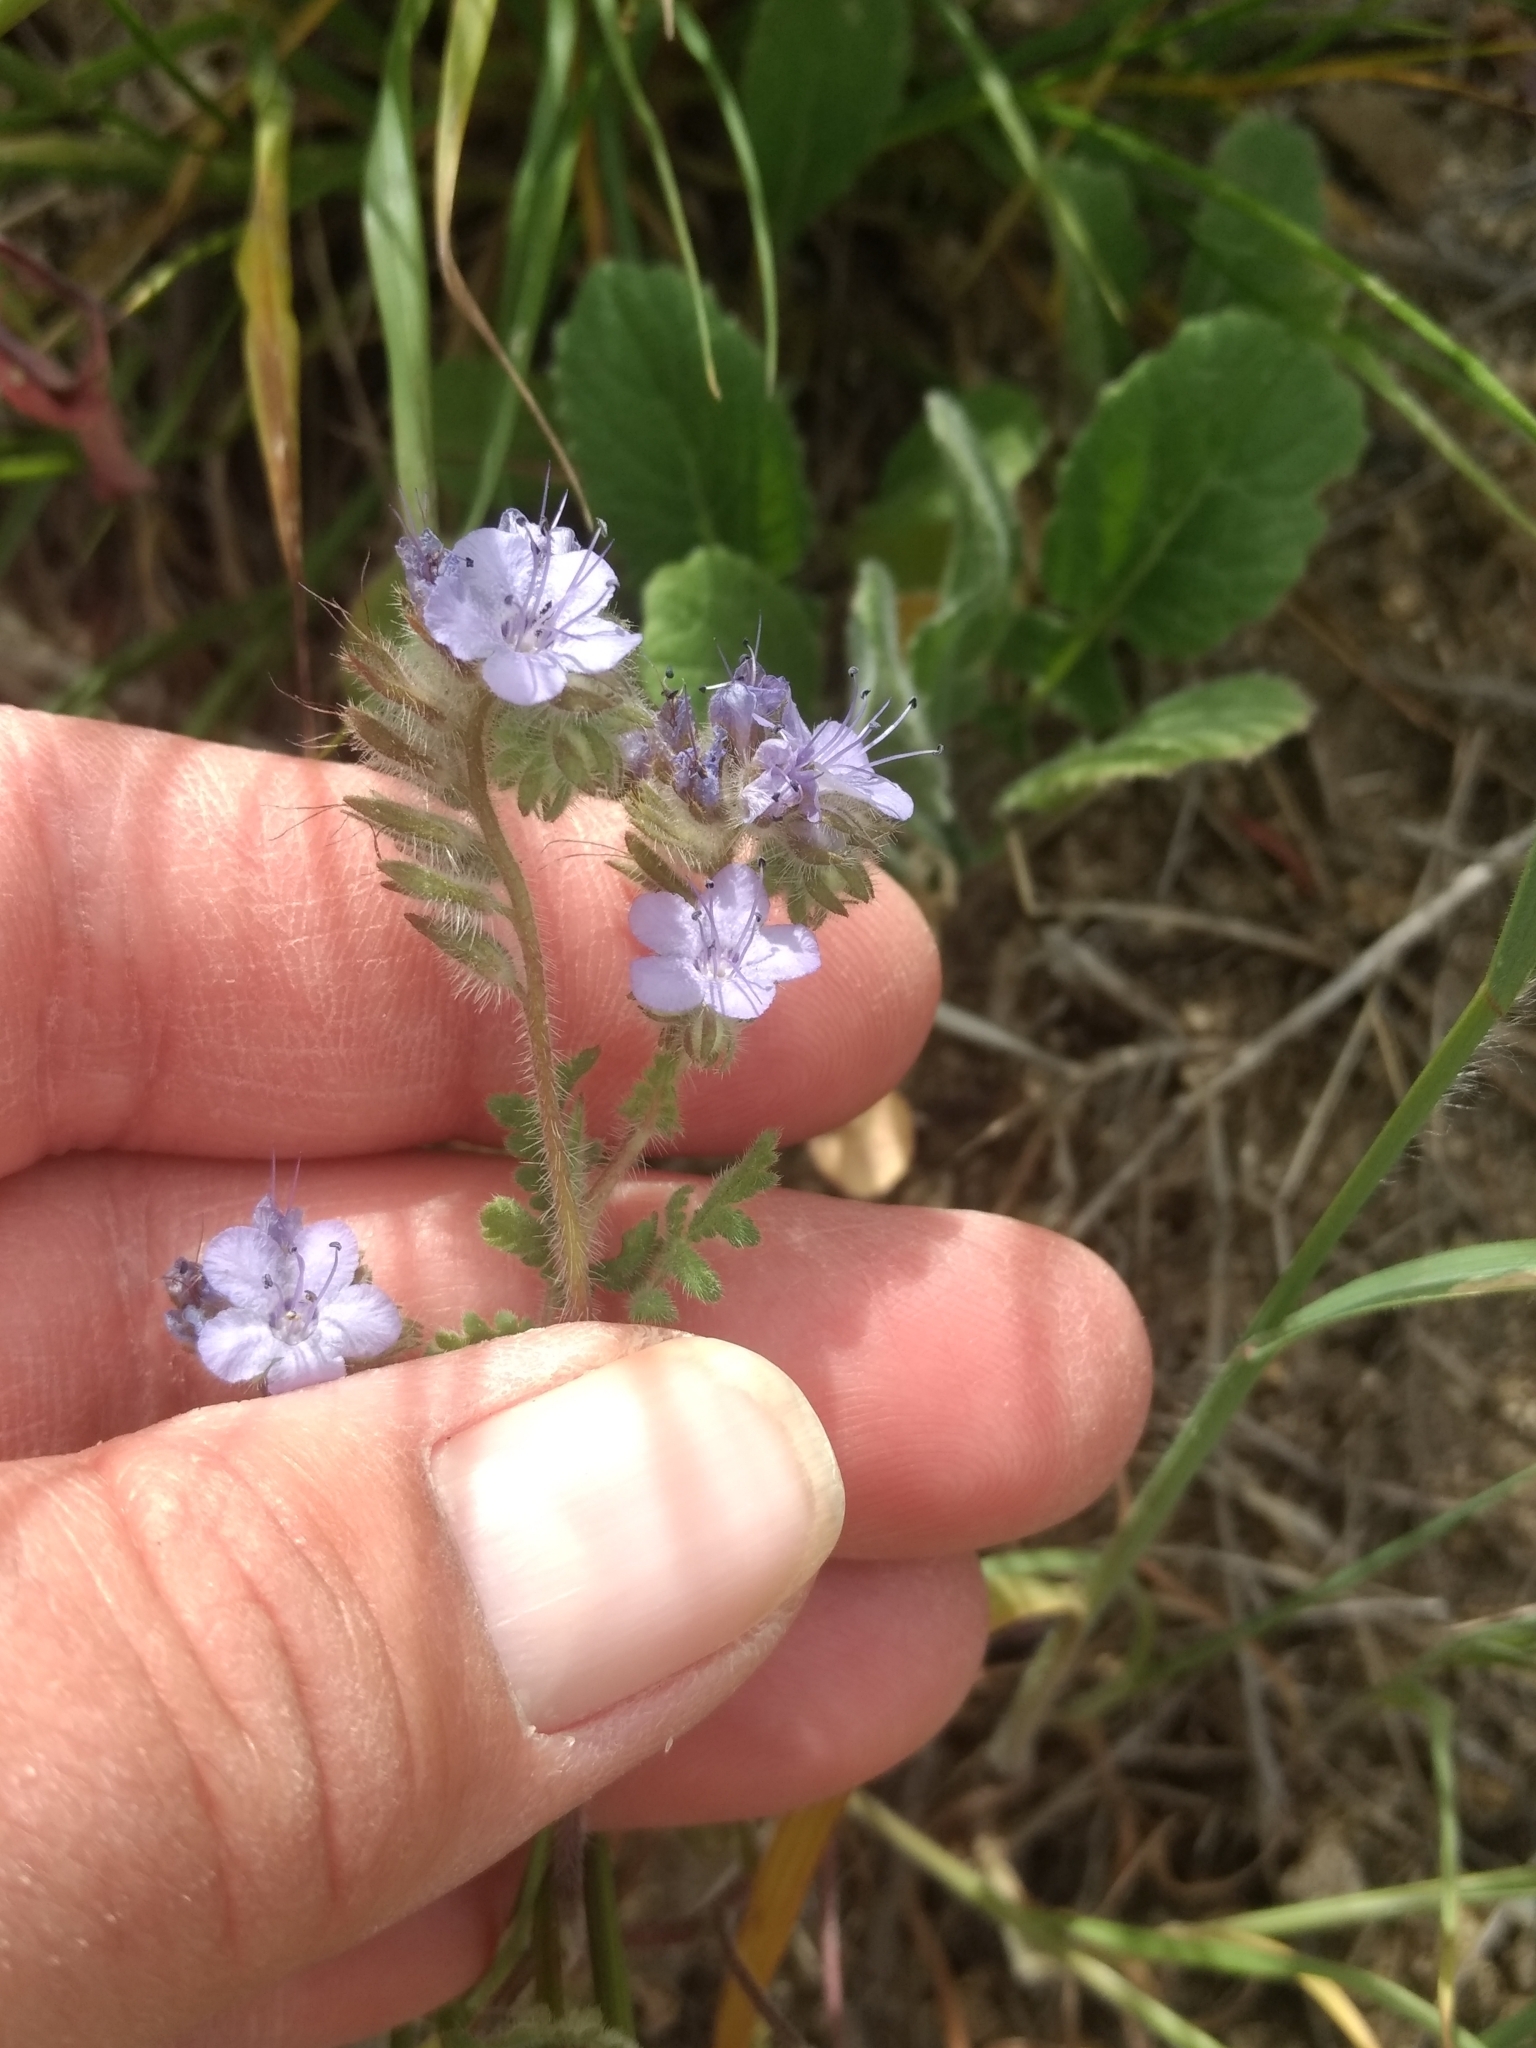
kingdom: Plantae
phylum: Tracheophyta
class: Magnoliopsida
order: Boraginales
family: Hydrophyllaceae
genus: Phacelia
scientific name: Phacelia distans
